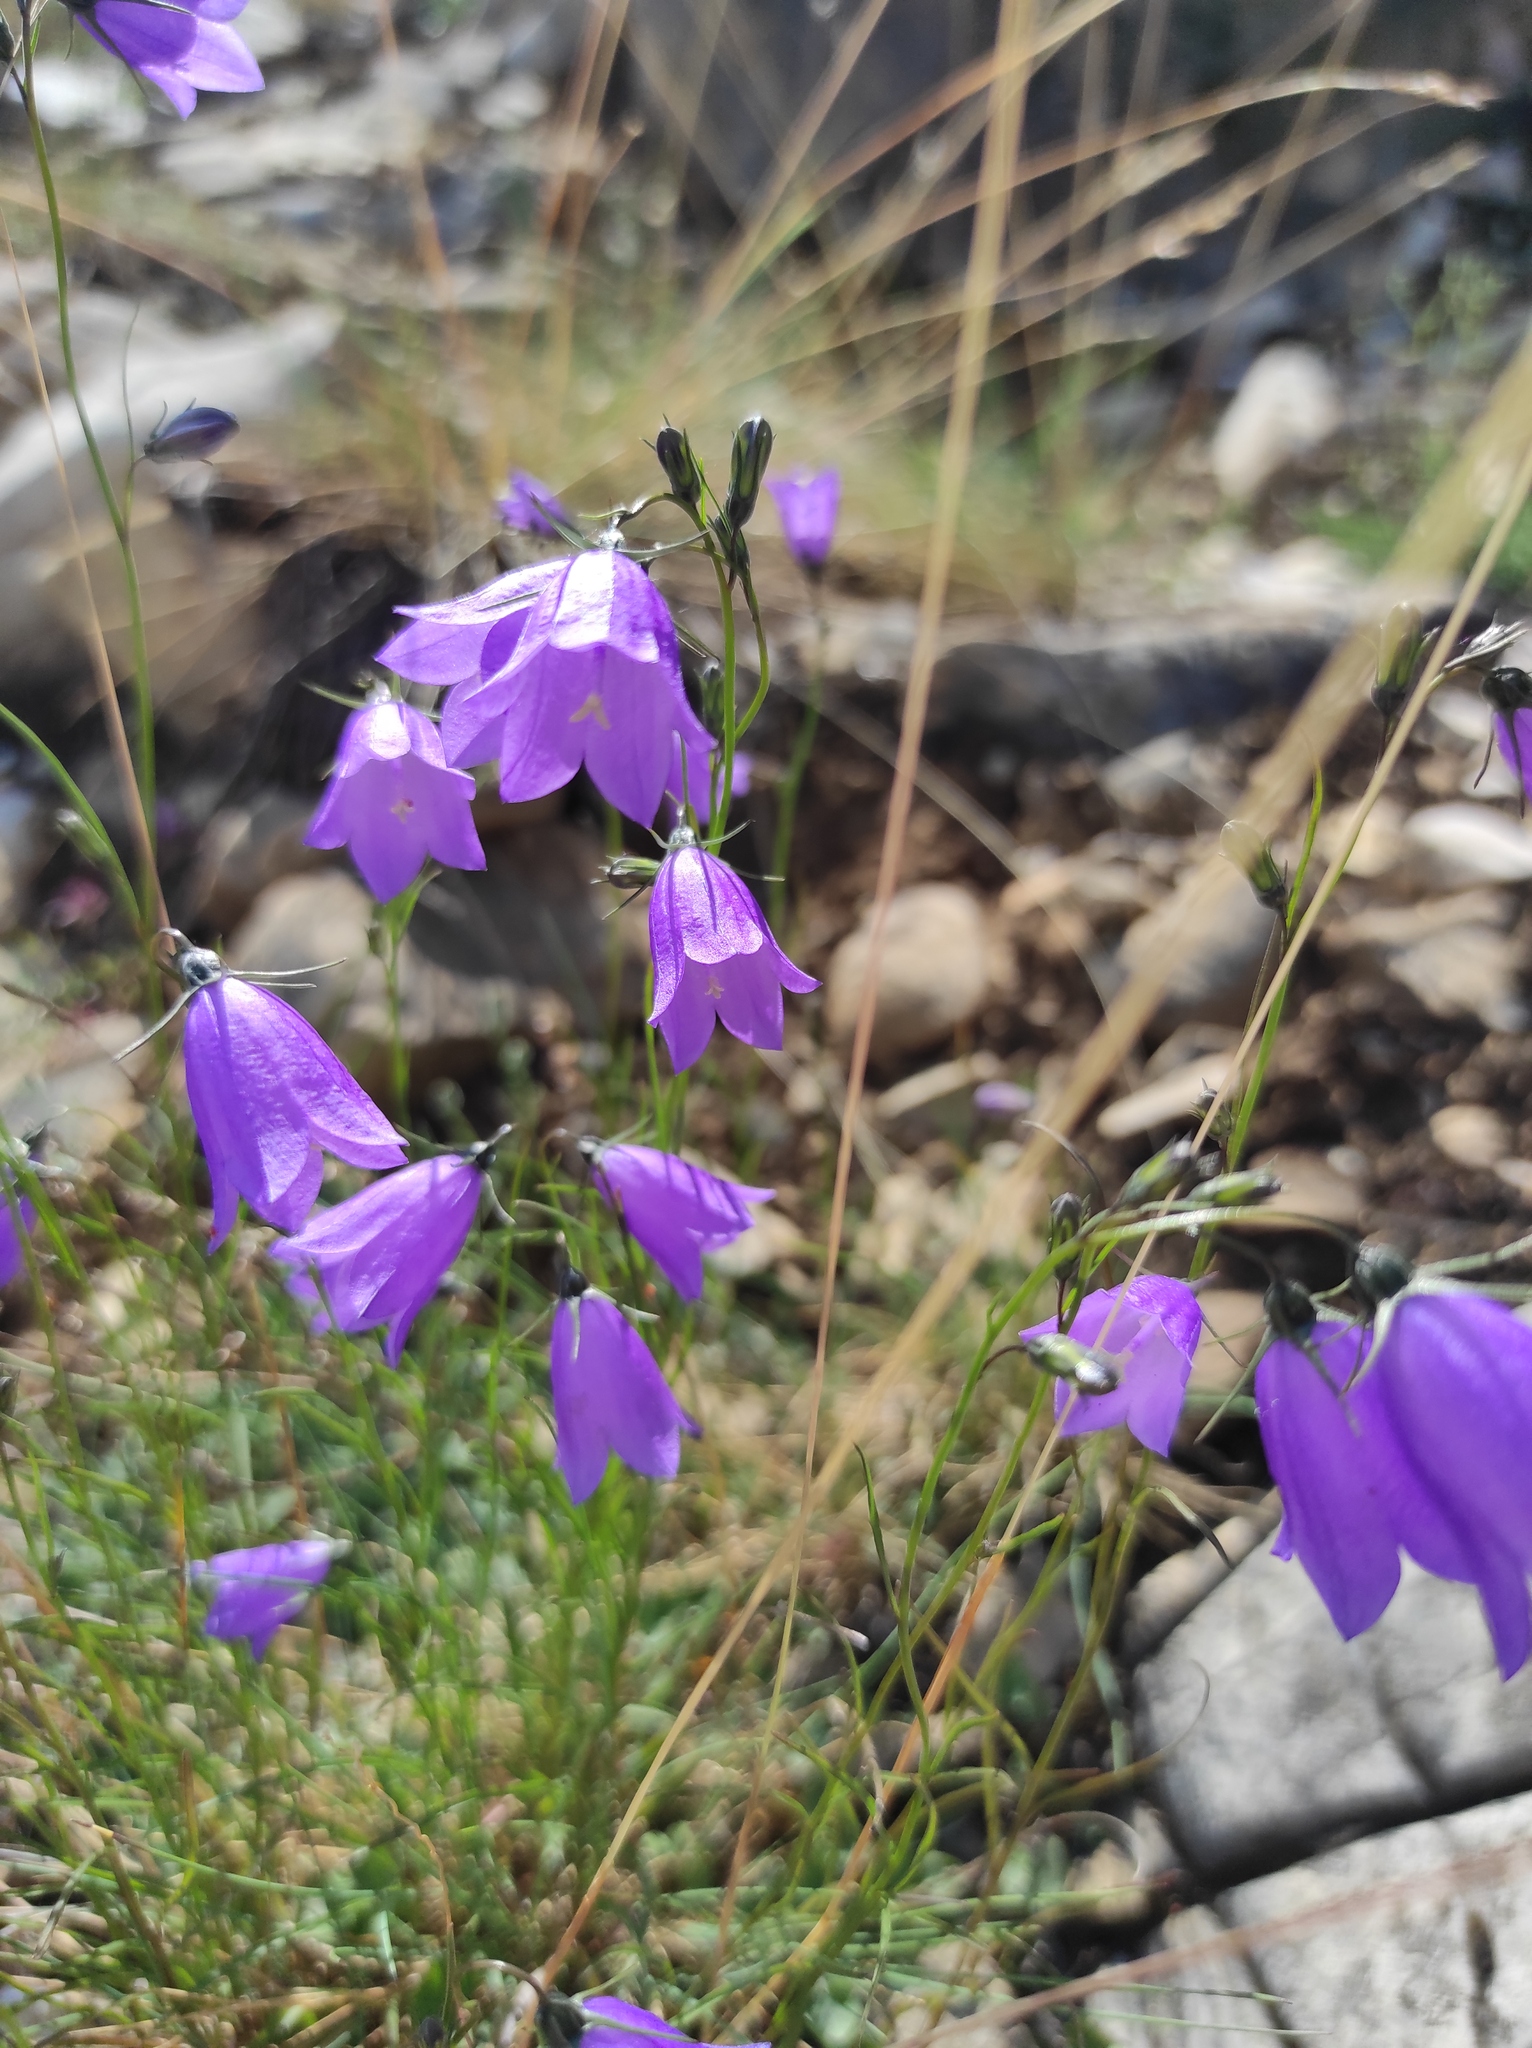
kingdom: Plantae
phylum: Tracheophyta
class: Magnoliopsida
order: Asterales
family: Campanulaceae
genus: Campanula
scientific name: Campanula rotundifolia
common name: Harebell
